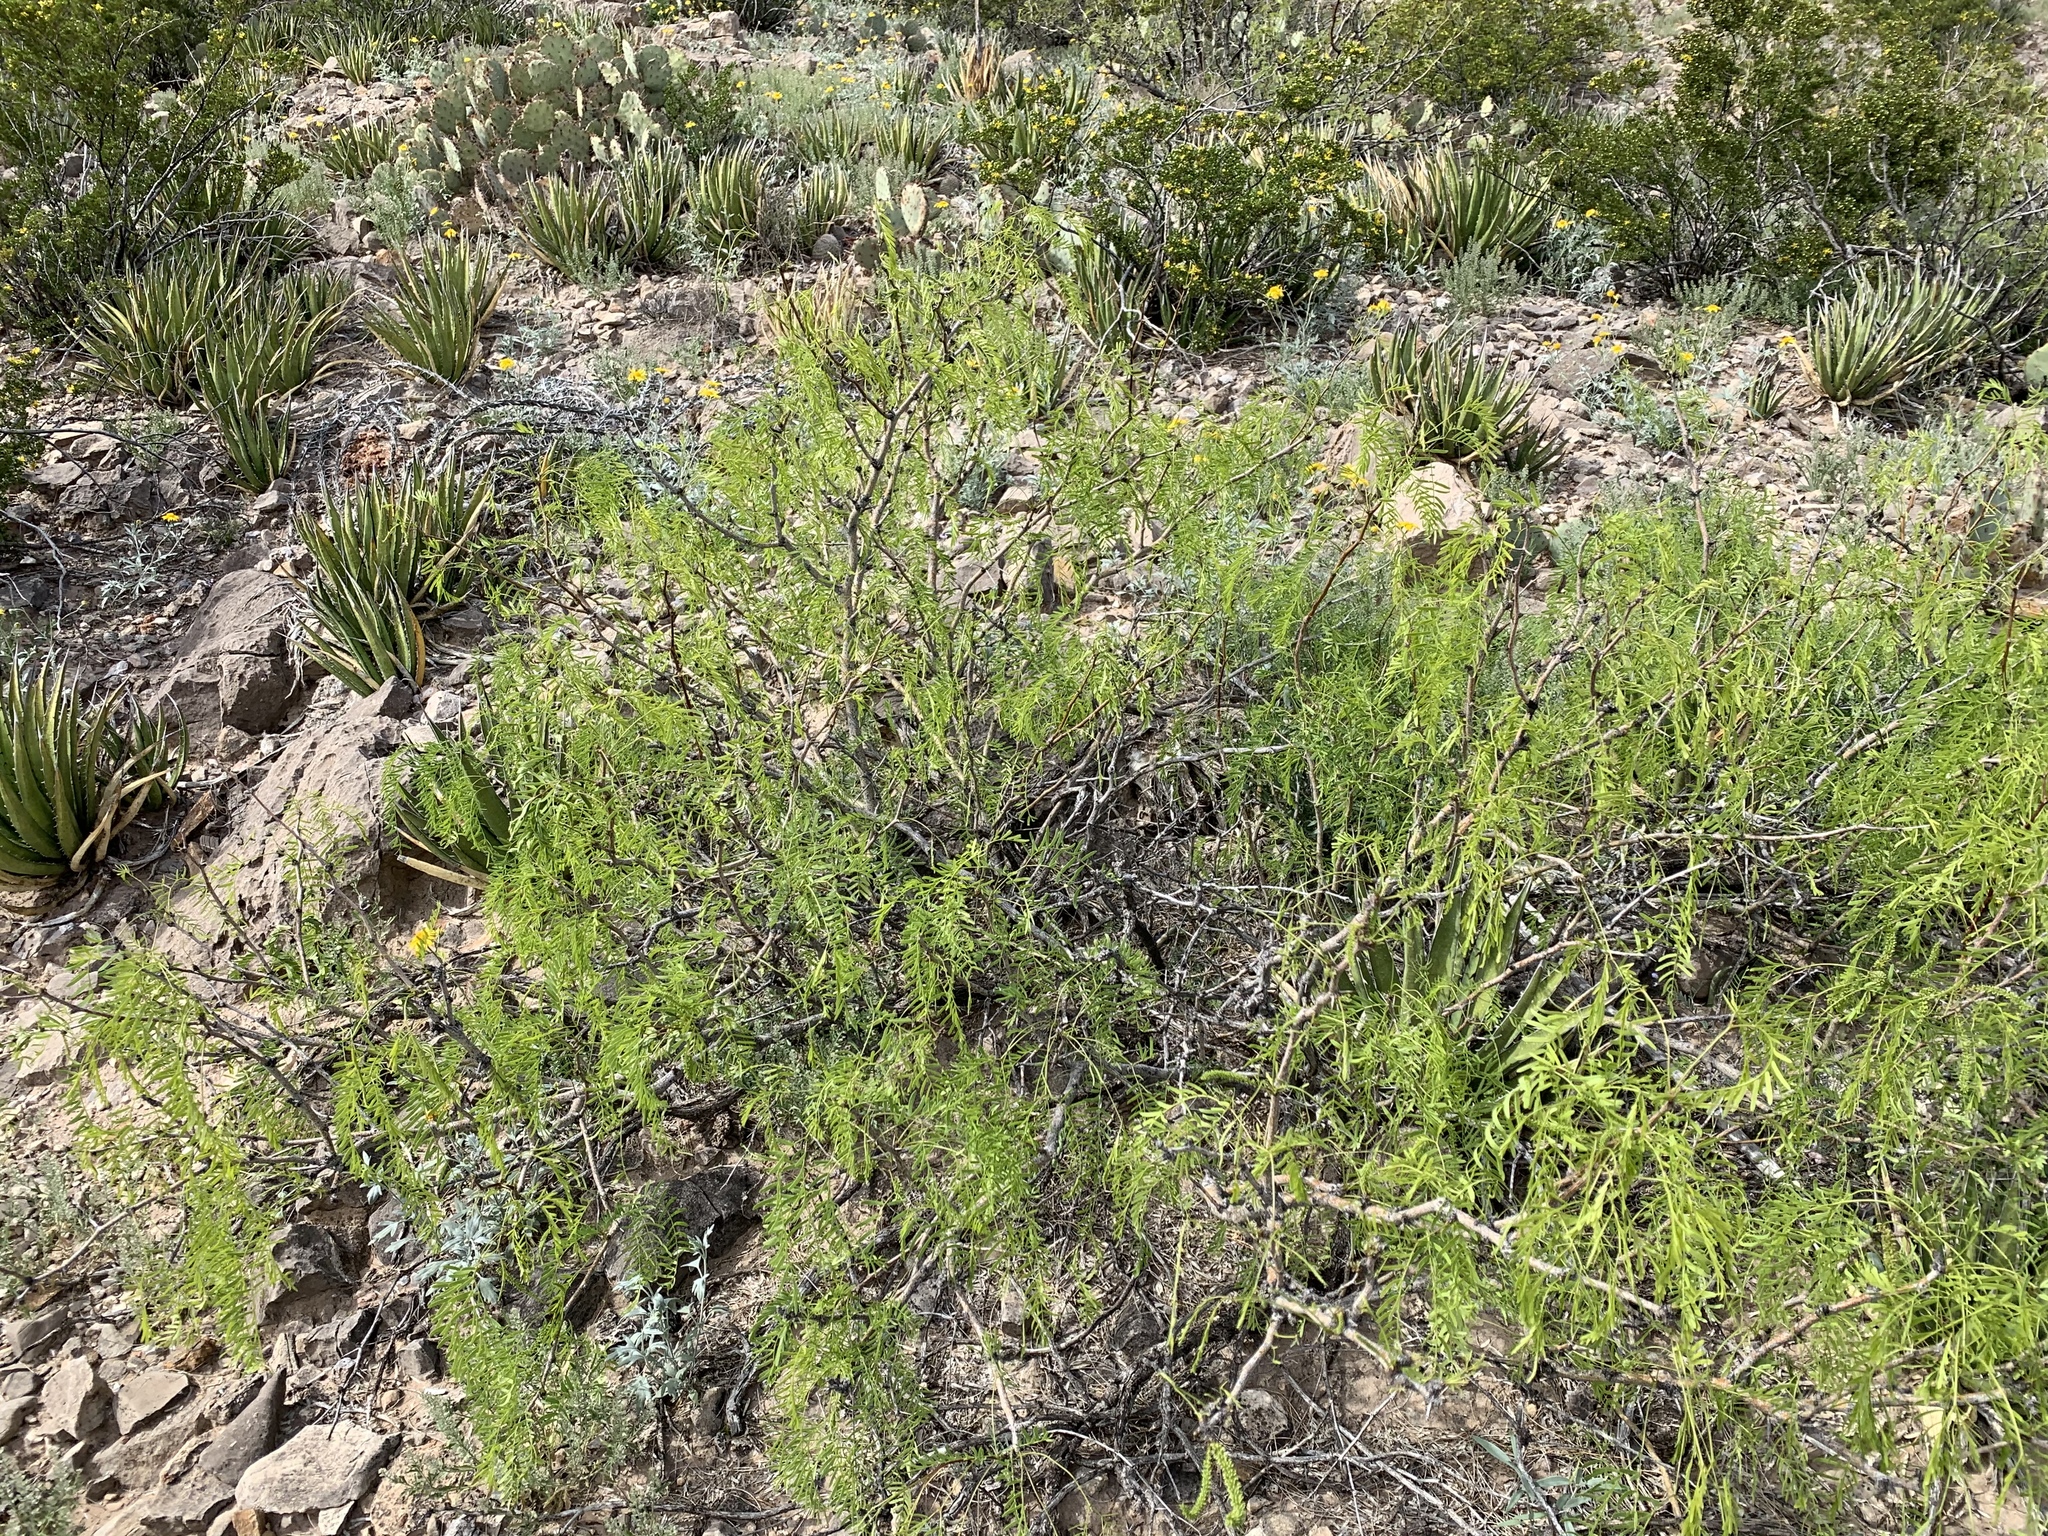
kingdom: Plantae
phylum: Tracheophyta
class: Magnoliopsida
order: Fabales
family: Fabaceae
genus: Prosopis
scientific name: Prosopis glandulosa
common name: Honey mesquite
